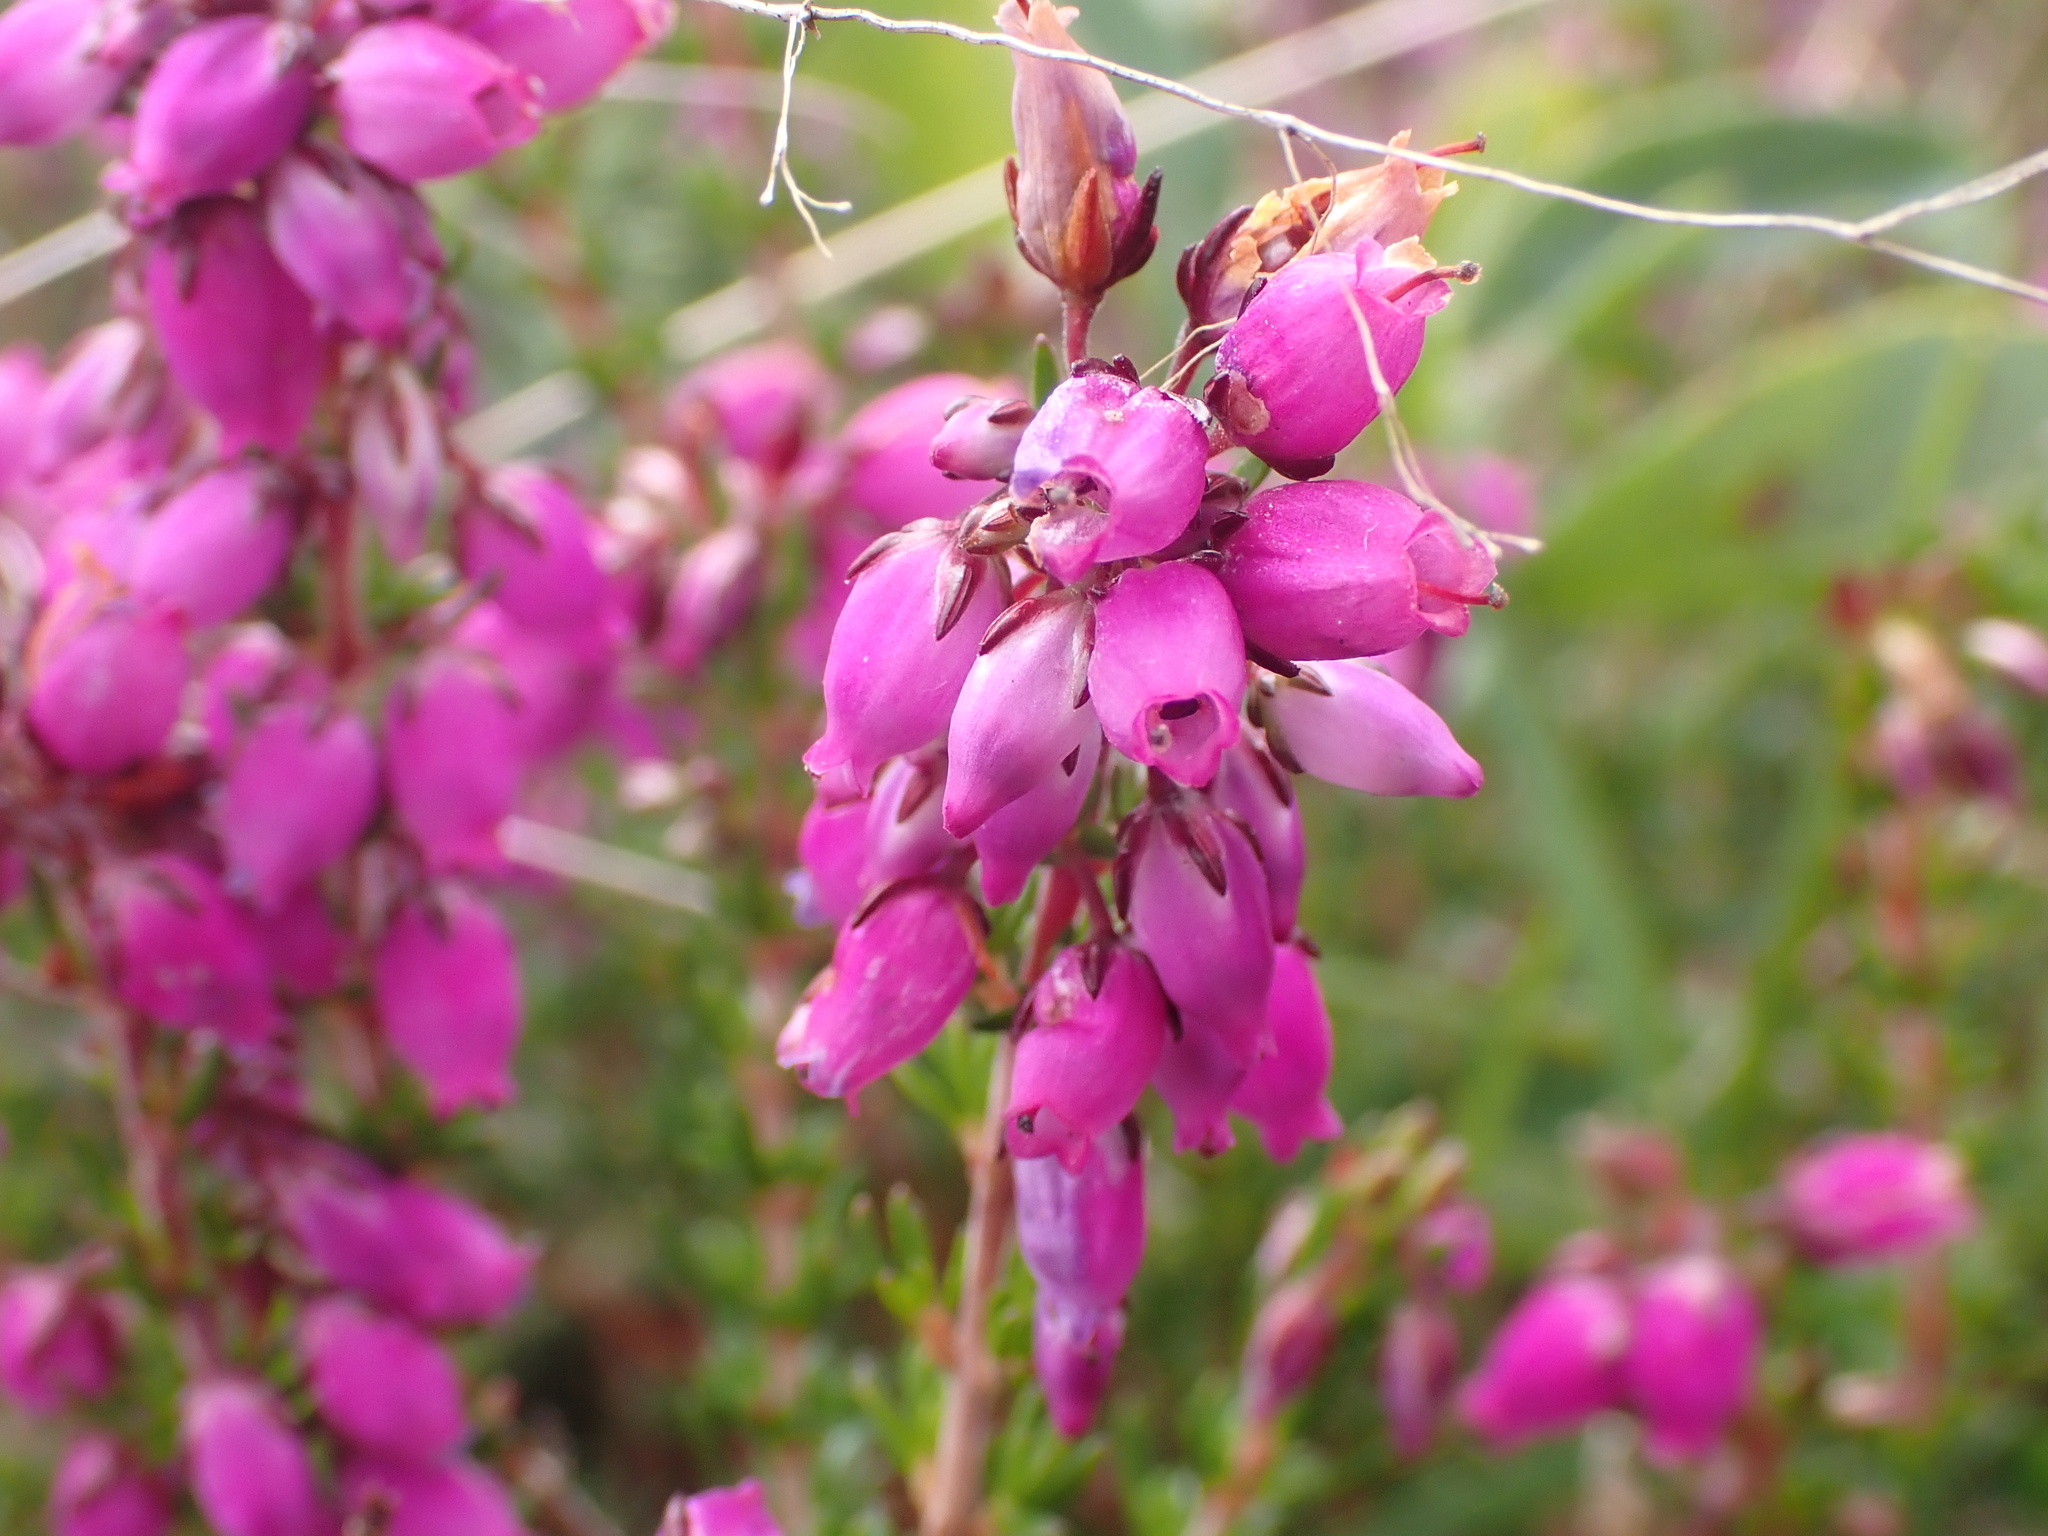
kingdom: Plantae
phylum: Tracheophyta
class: Magnoliopsida
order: Ericales
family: Ericaceae
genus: Erica
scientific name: Erica cinerea
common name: Bell heather
